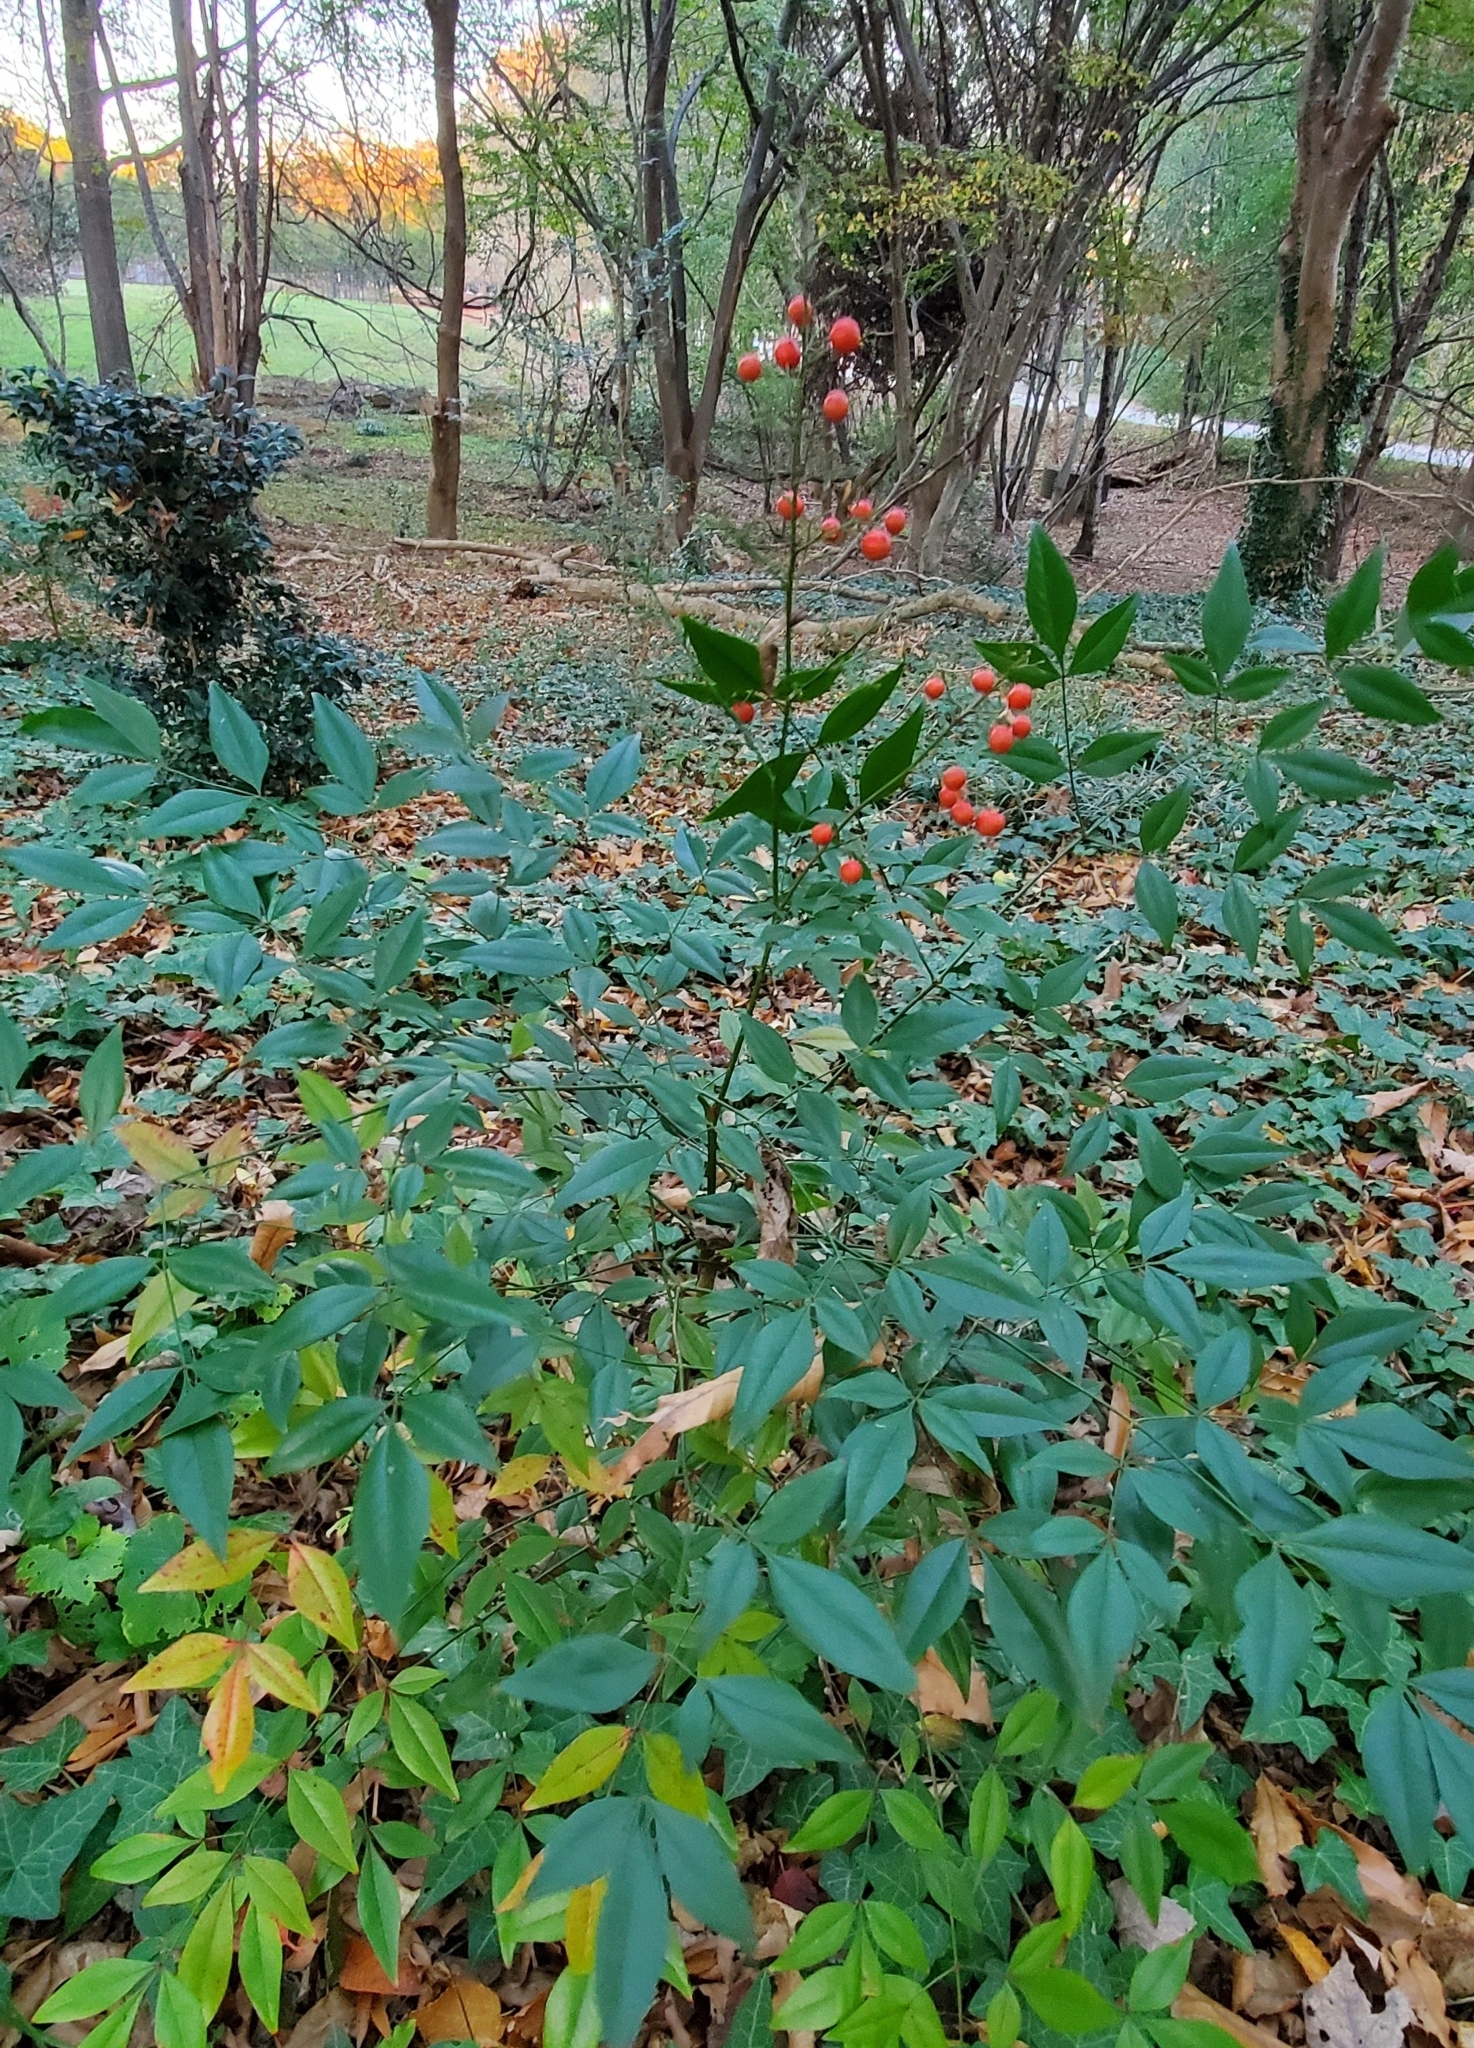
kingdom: Plantae
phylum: Tracheophyta
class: Magnoliopsida
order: Ranunculales
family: Berberidaceae
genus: Nandina
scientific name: Nandina domestica
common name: Sacred bamboo
